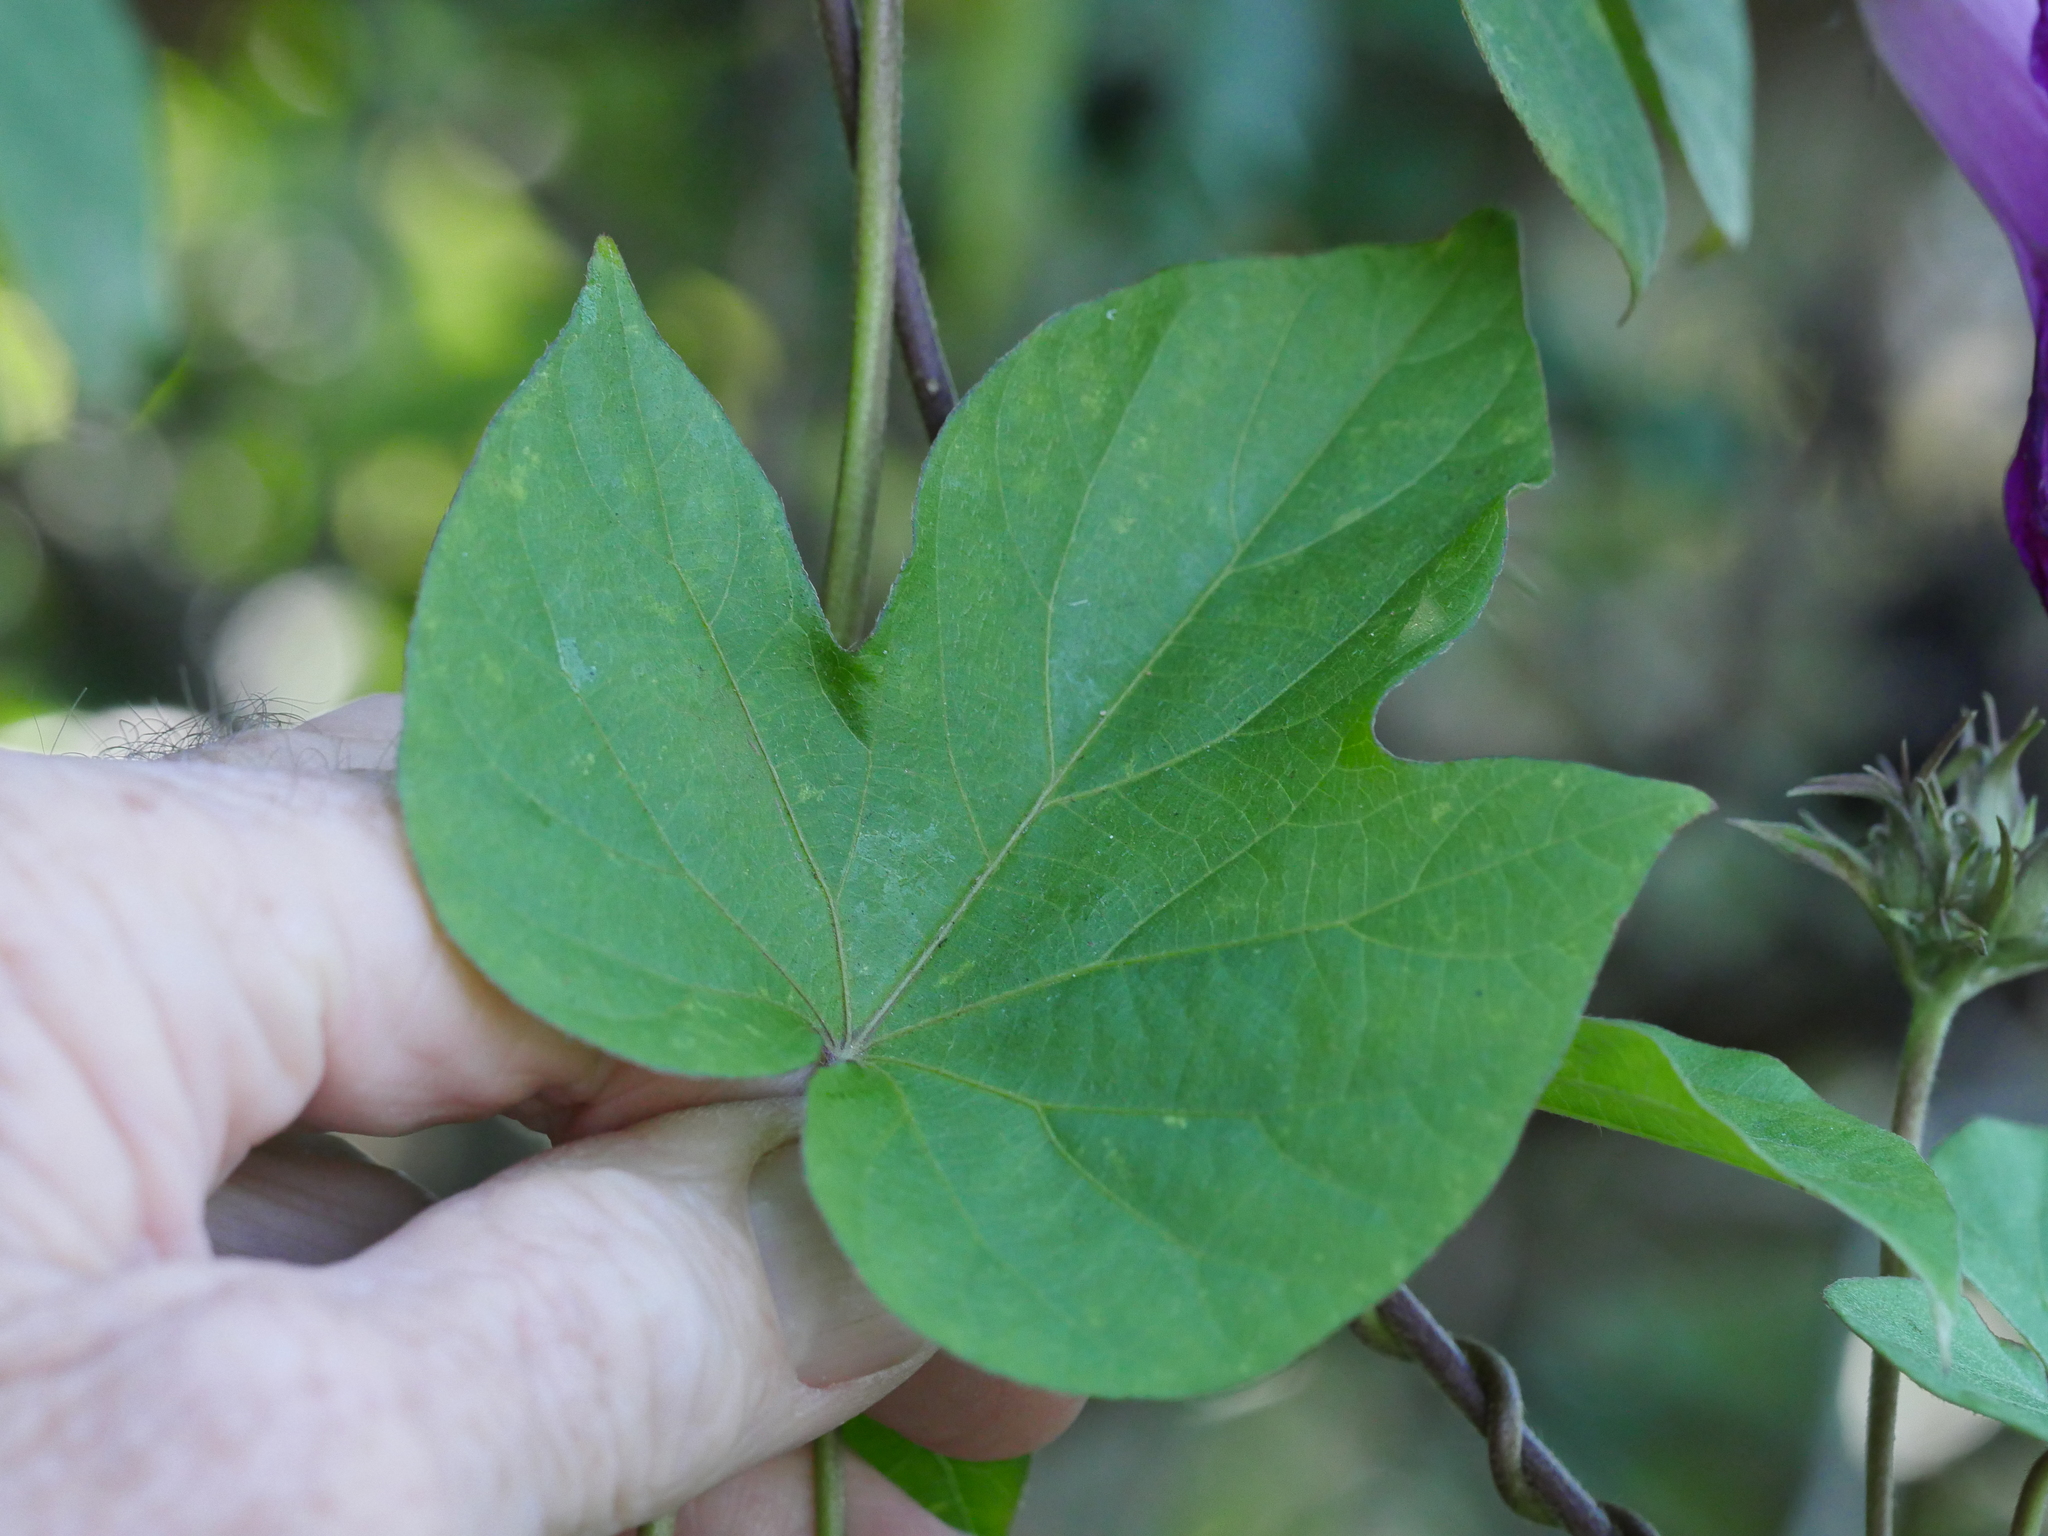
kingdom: Plantae
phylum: Tracheophyta
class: Magnoliopsida
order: Solanales
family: Convolvulaceae
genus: Ipomoea
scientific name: Ipomoea indica
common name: Blue dawnflower
